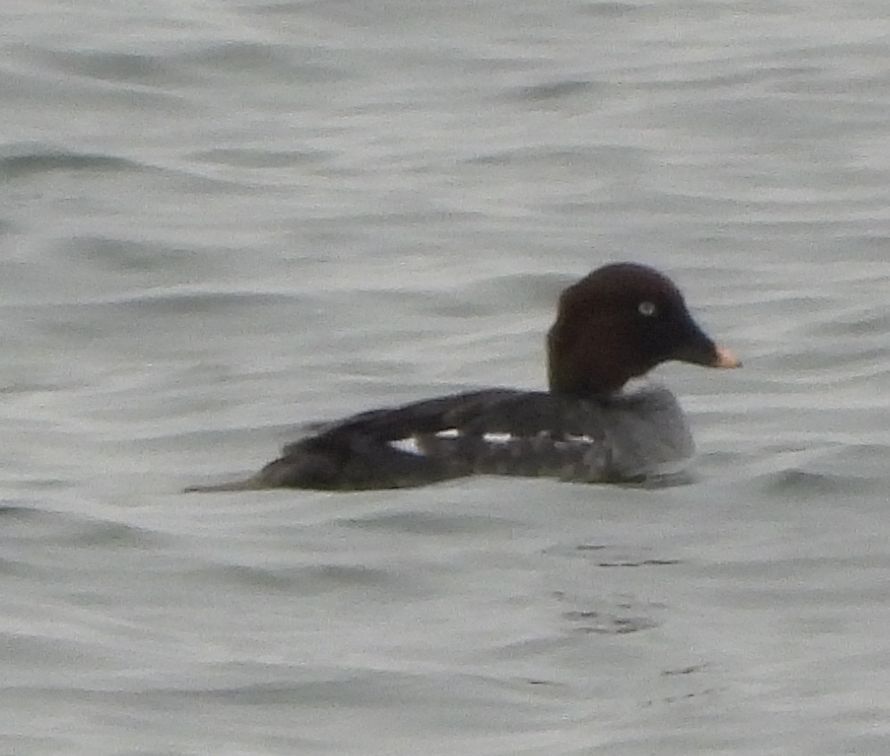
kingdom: Animalia
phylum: Chordata
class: Aves
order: Anseriformes
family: Anatidae
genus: Bucephala
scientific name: Bucephala clangula
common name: Common goldeneye
